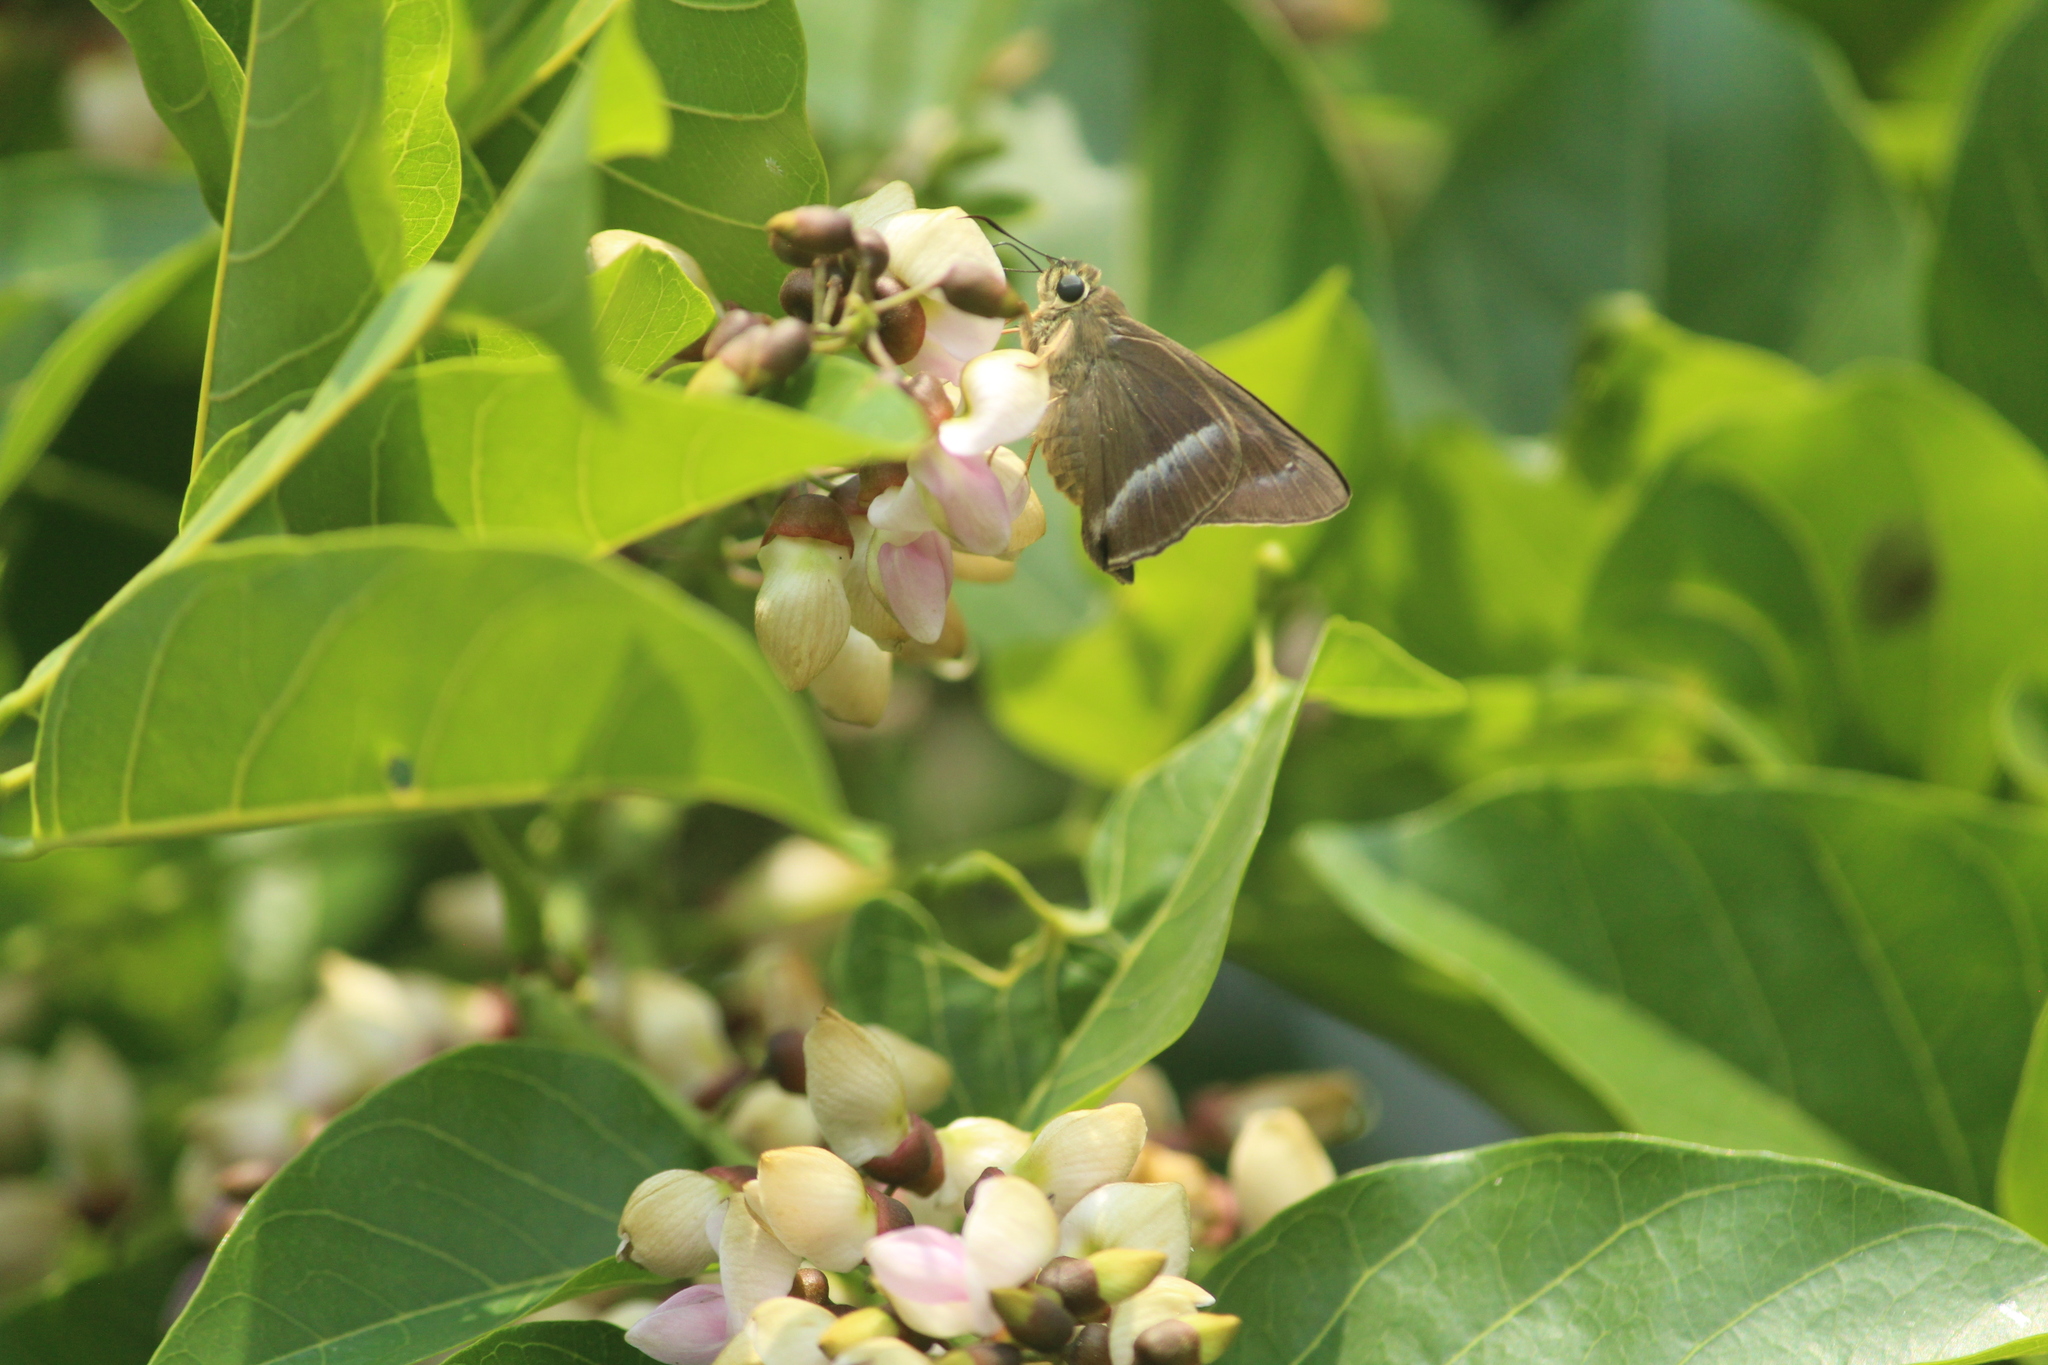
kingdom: Animalia
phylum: Arthropoda
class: Insecta
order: Lepidoptera
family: Hesperiidae
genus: Hasora
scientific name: Hasora chromus
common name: Common banded awl
